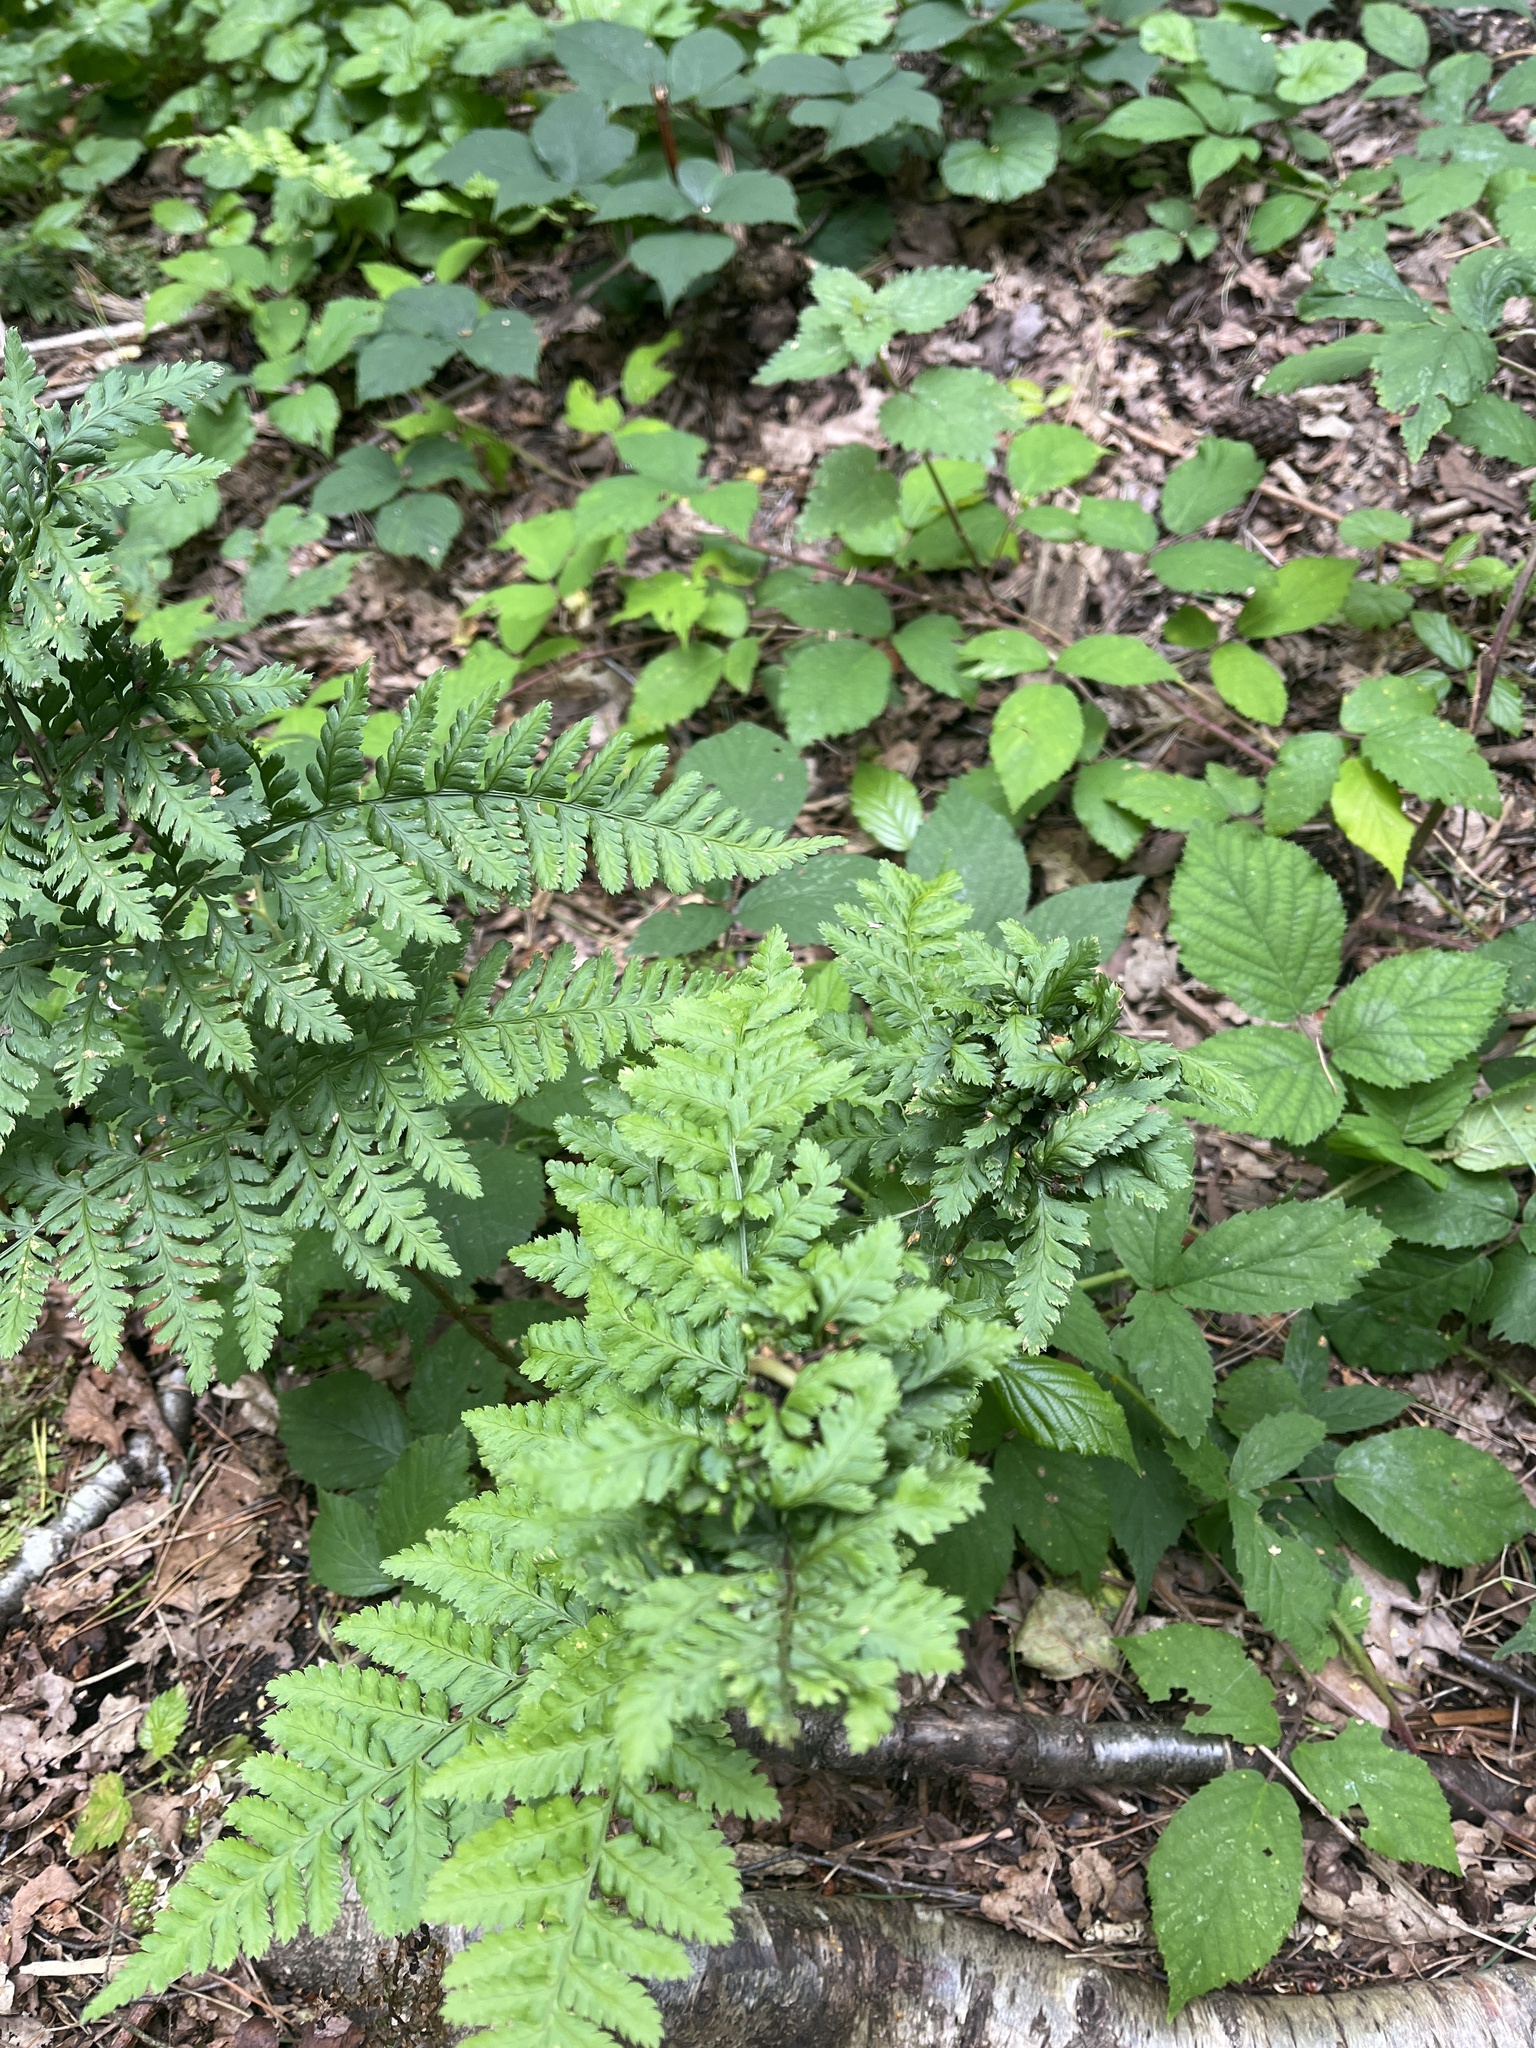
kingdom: Animalia
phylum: Arthropoda
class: Insecta
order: Diptera
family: Anthomyiidae
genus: Chirosia
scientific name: Chirosia betuleti
